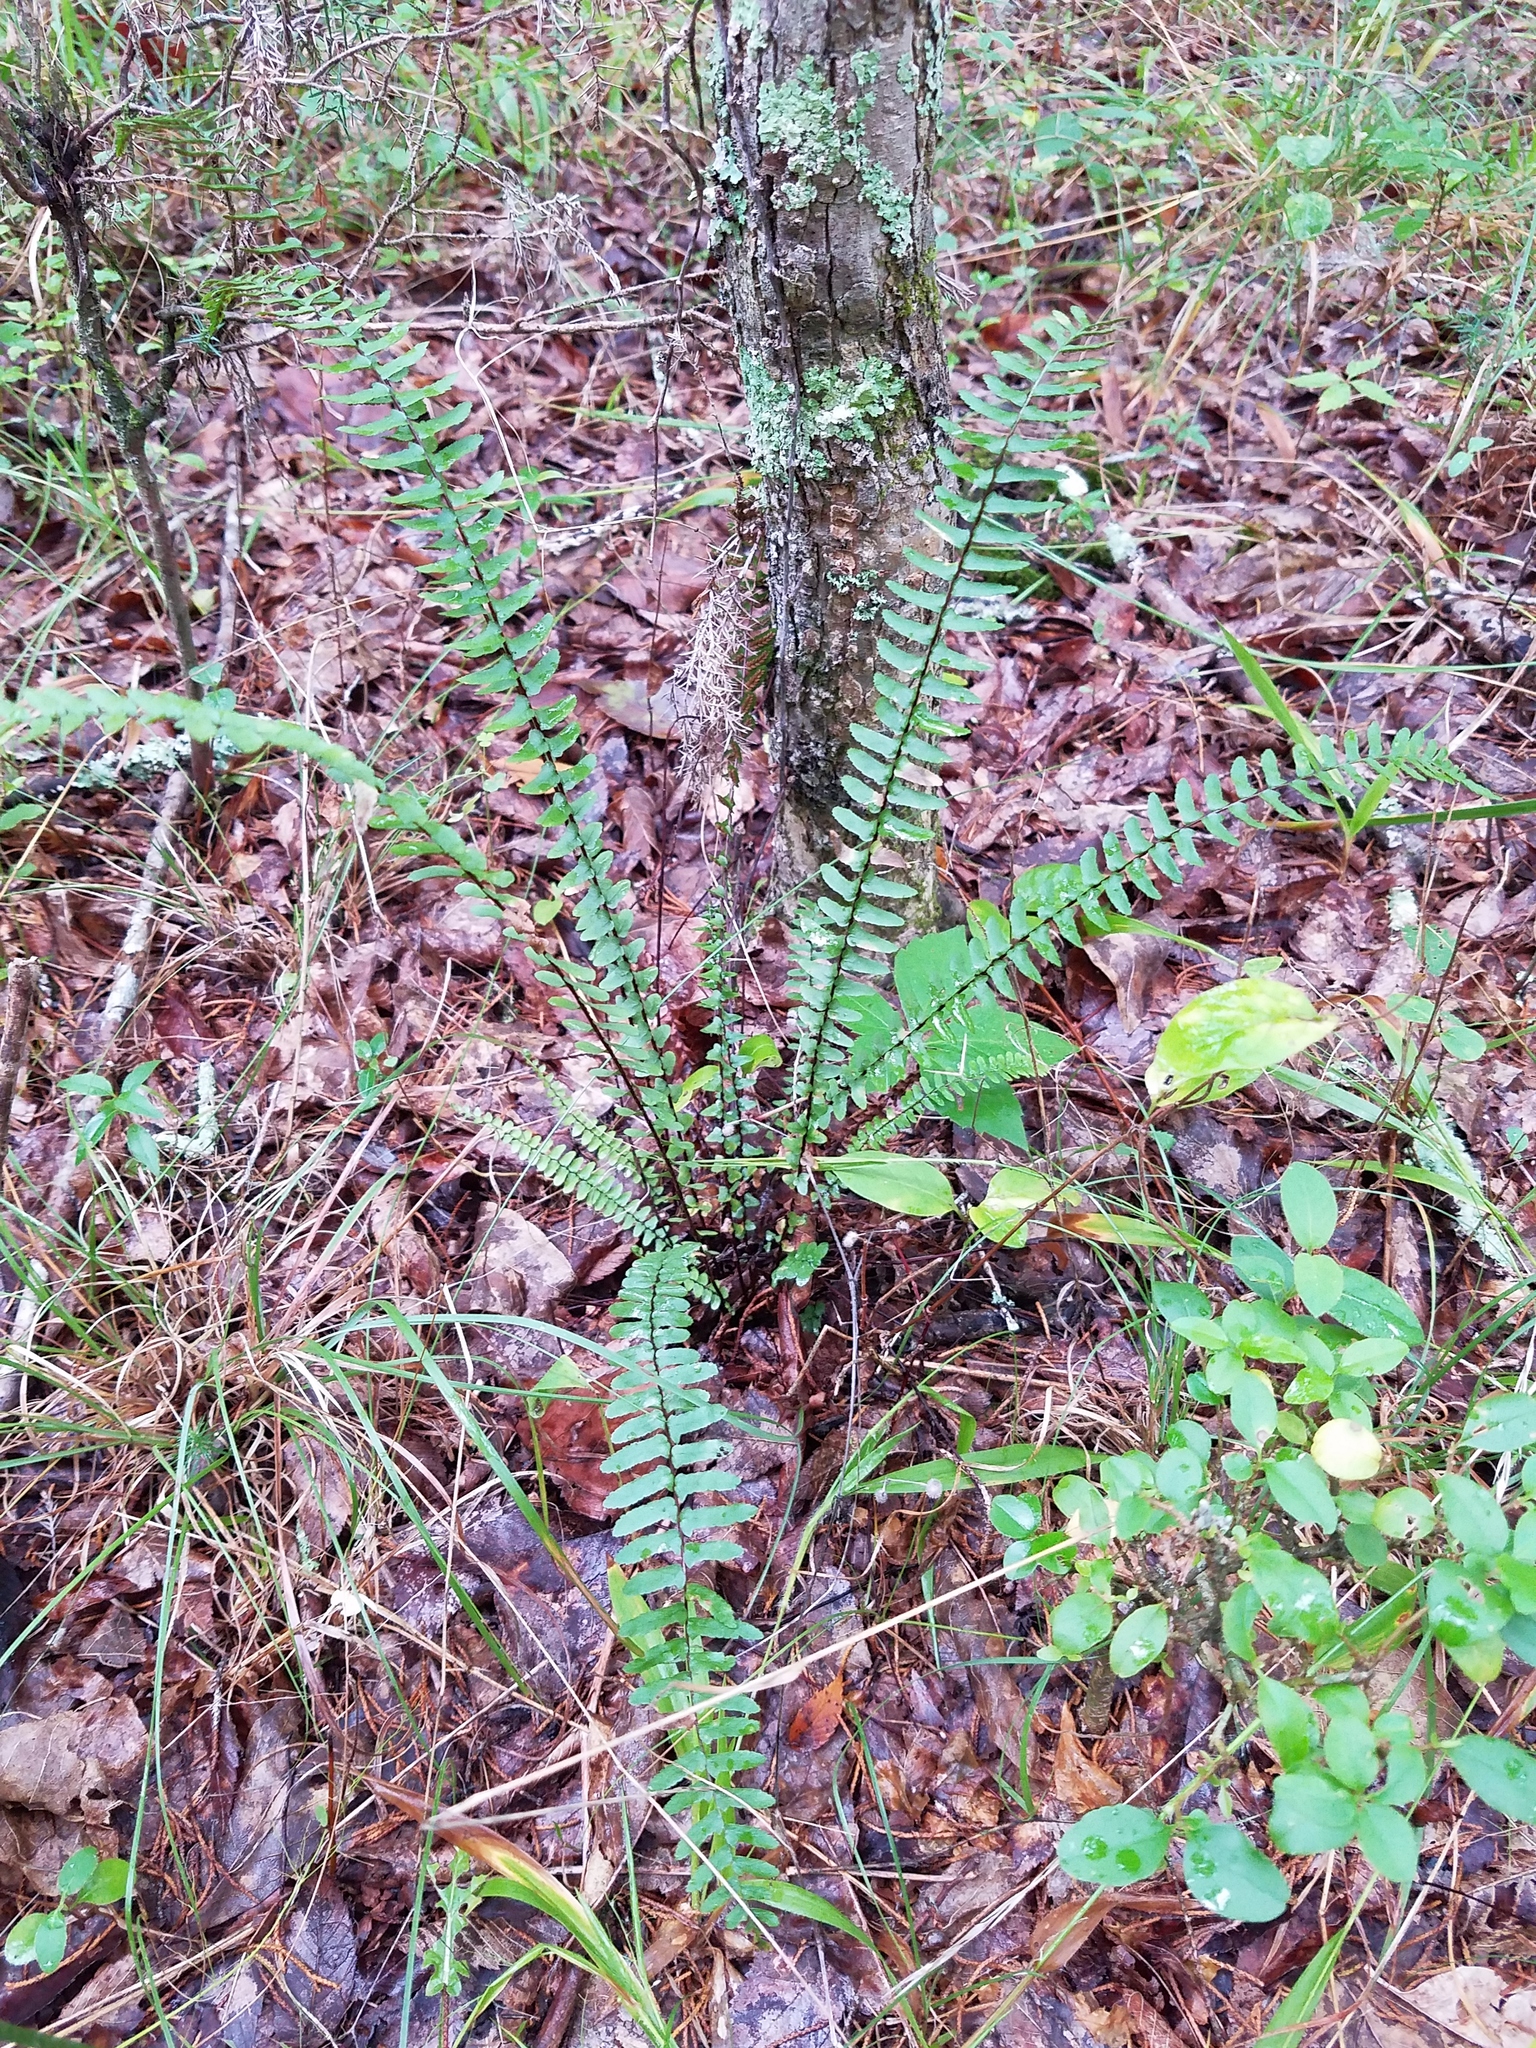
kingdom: Plantae
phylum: Tracheophyta
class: Polypodiopsida
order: Polypodiales
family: Aspleniaceae
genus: Asplenium
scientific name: Asplenium platyneuron
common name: Ebony spleenwort
